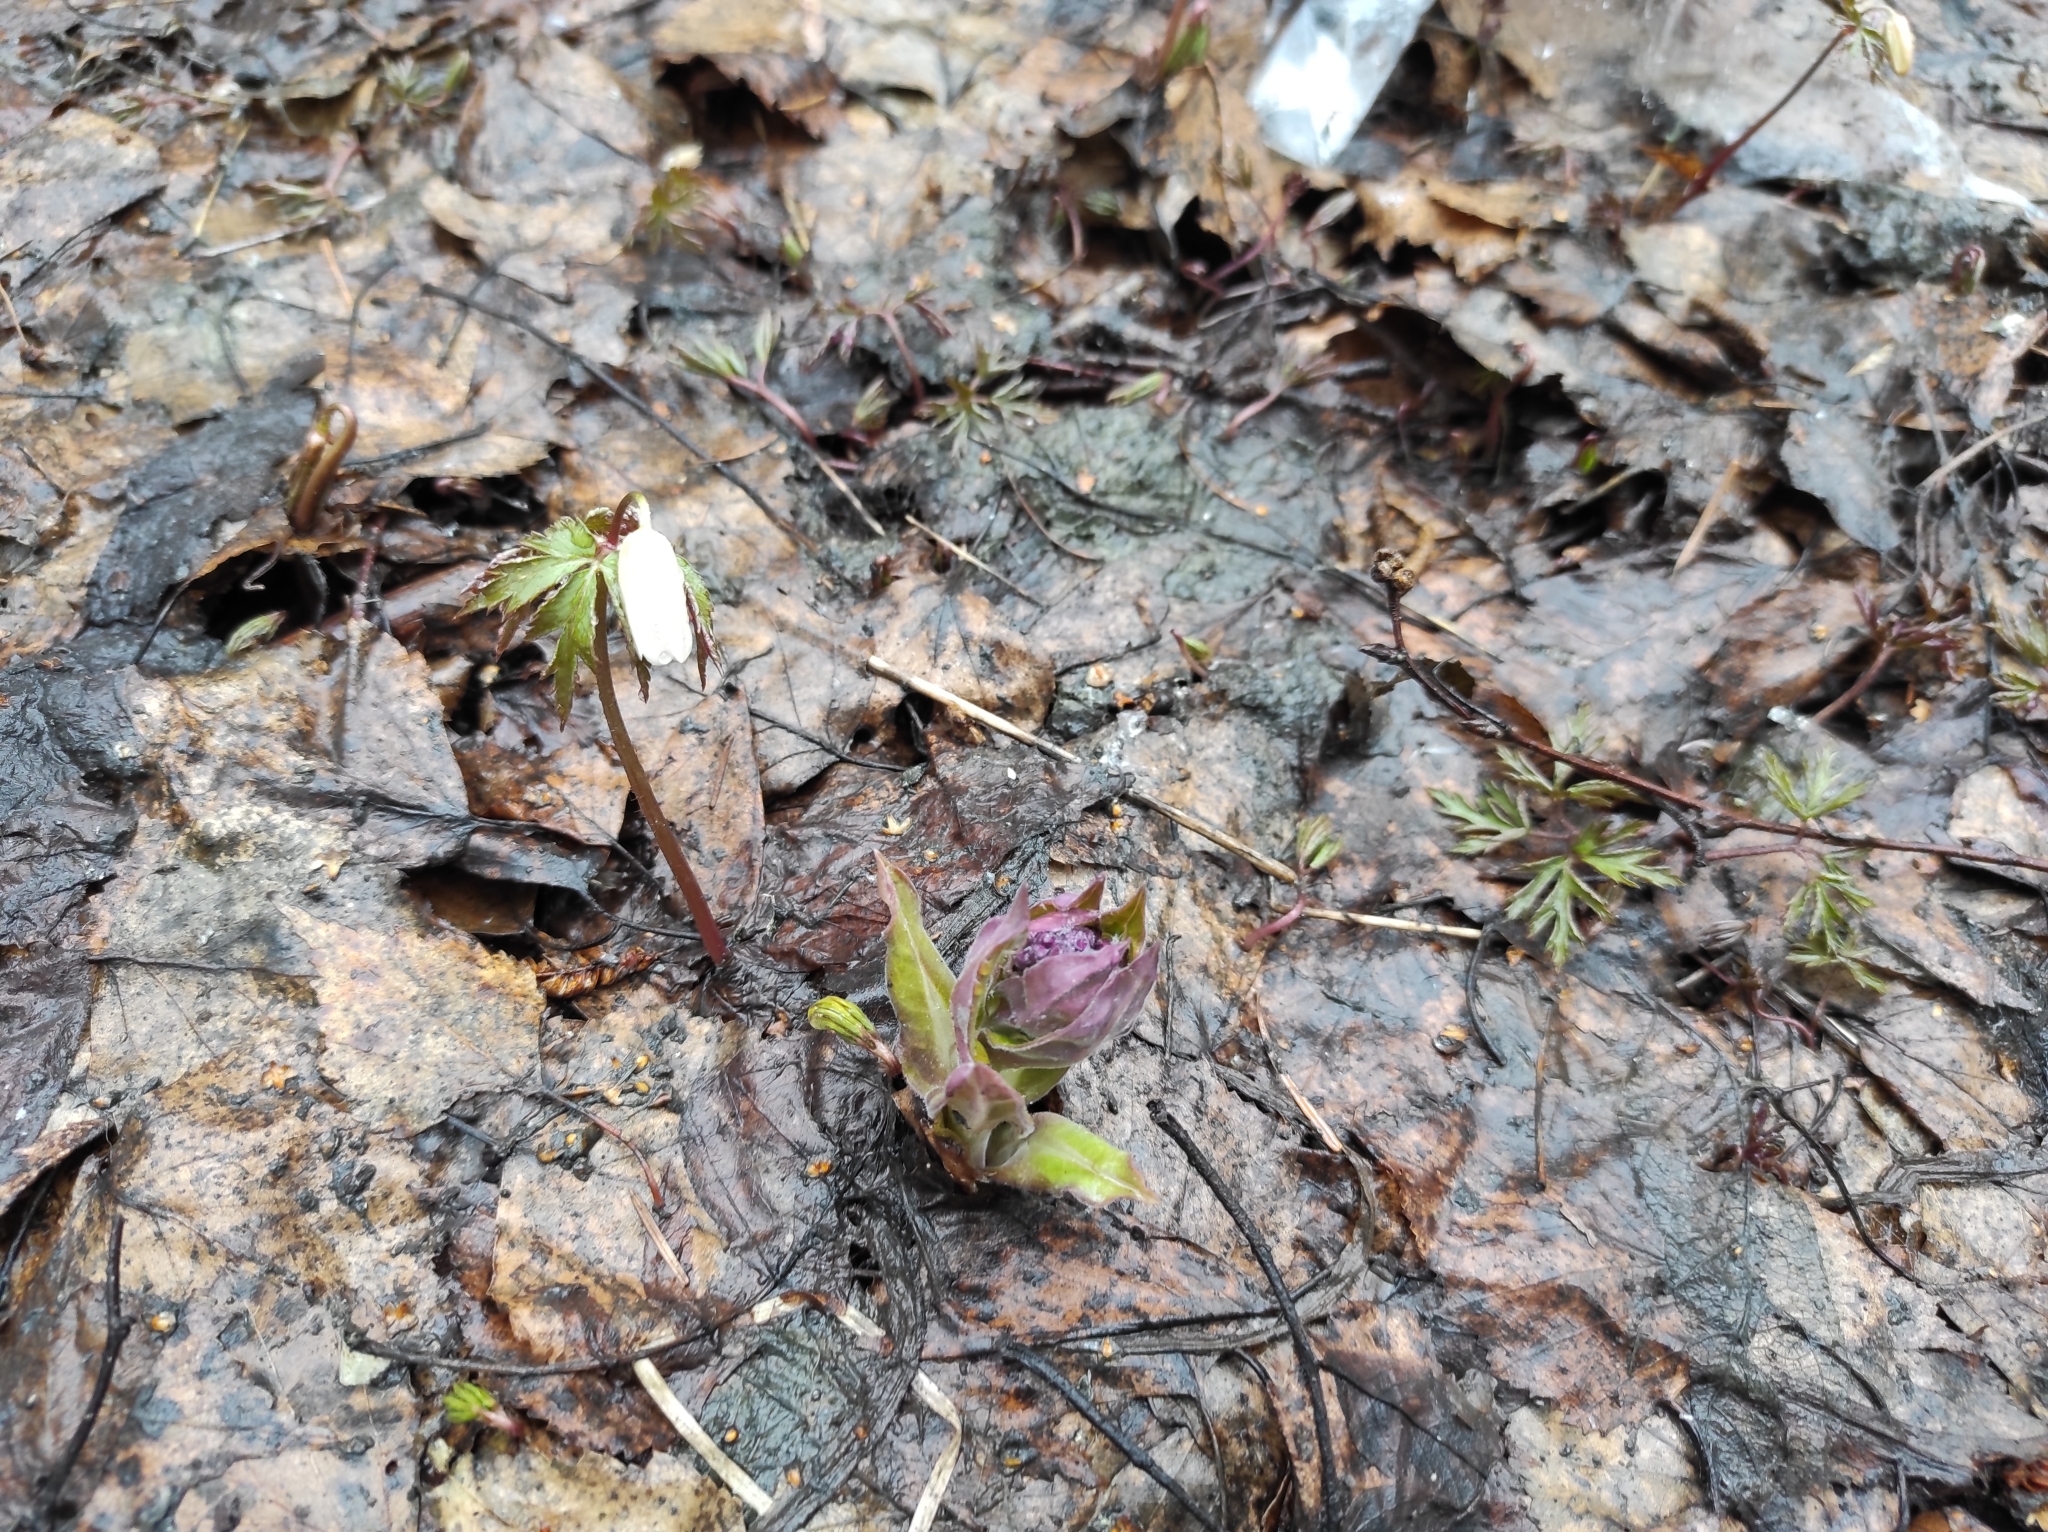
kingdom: Plantae
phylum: Tracheophyta
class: Magnoliopsida
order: Ranunculales
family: Ranunculaceae
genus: Anemone
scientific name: Anemone altaica
